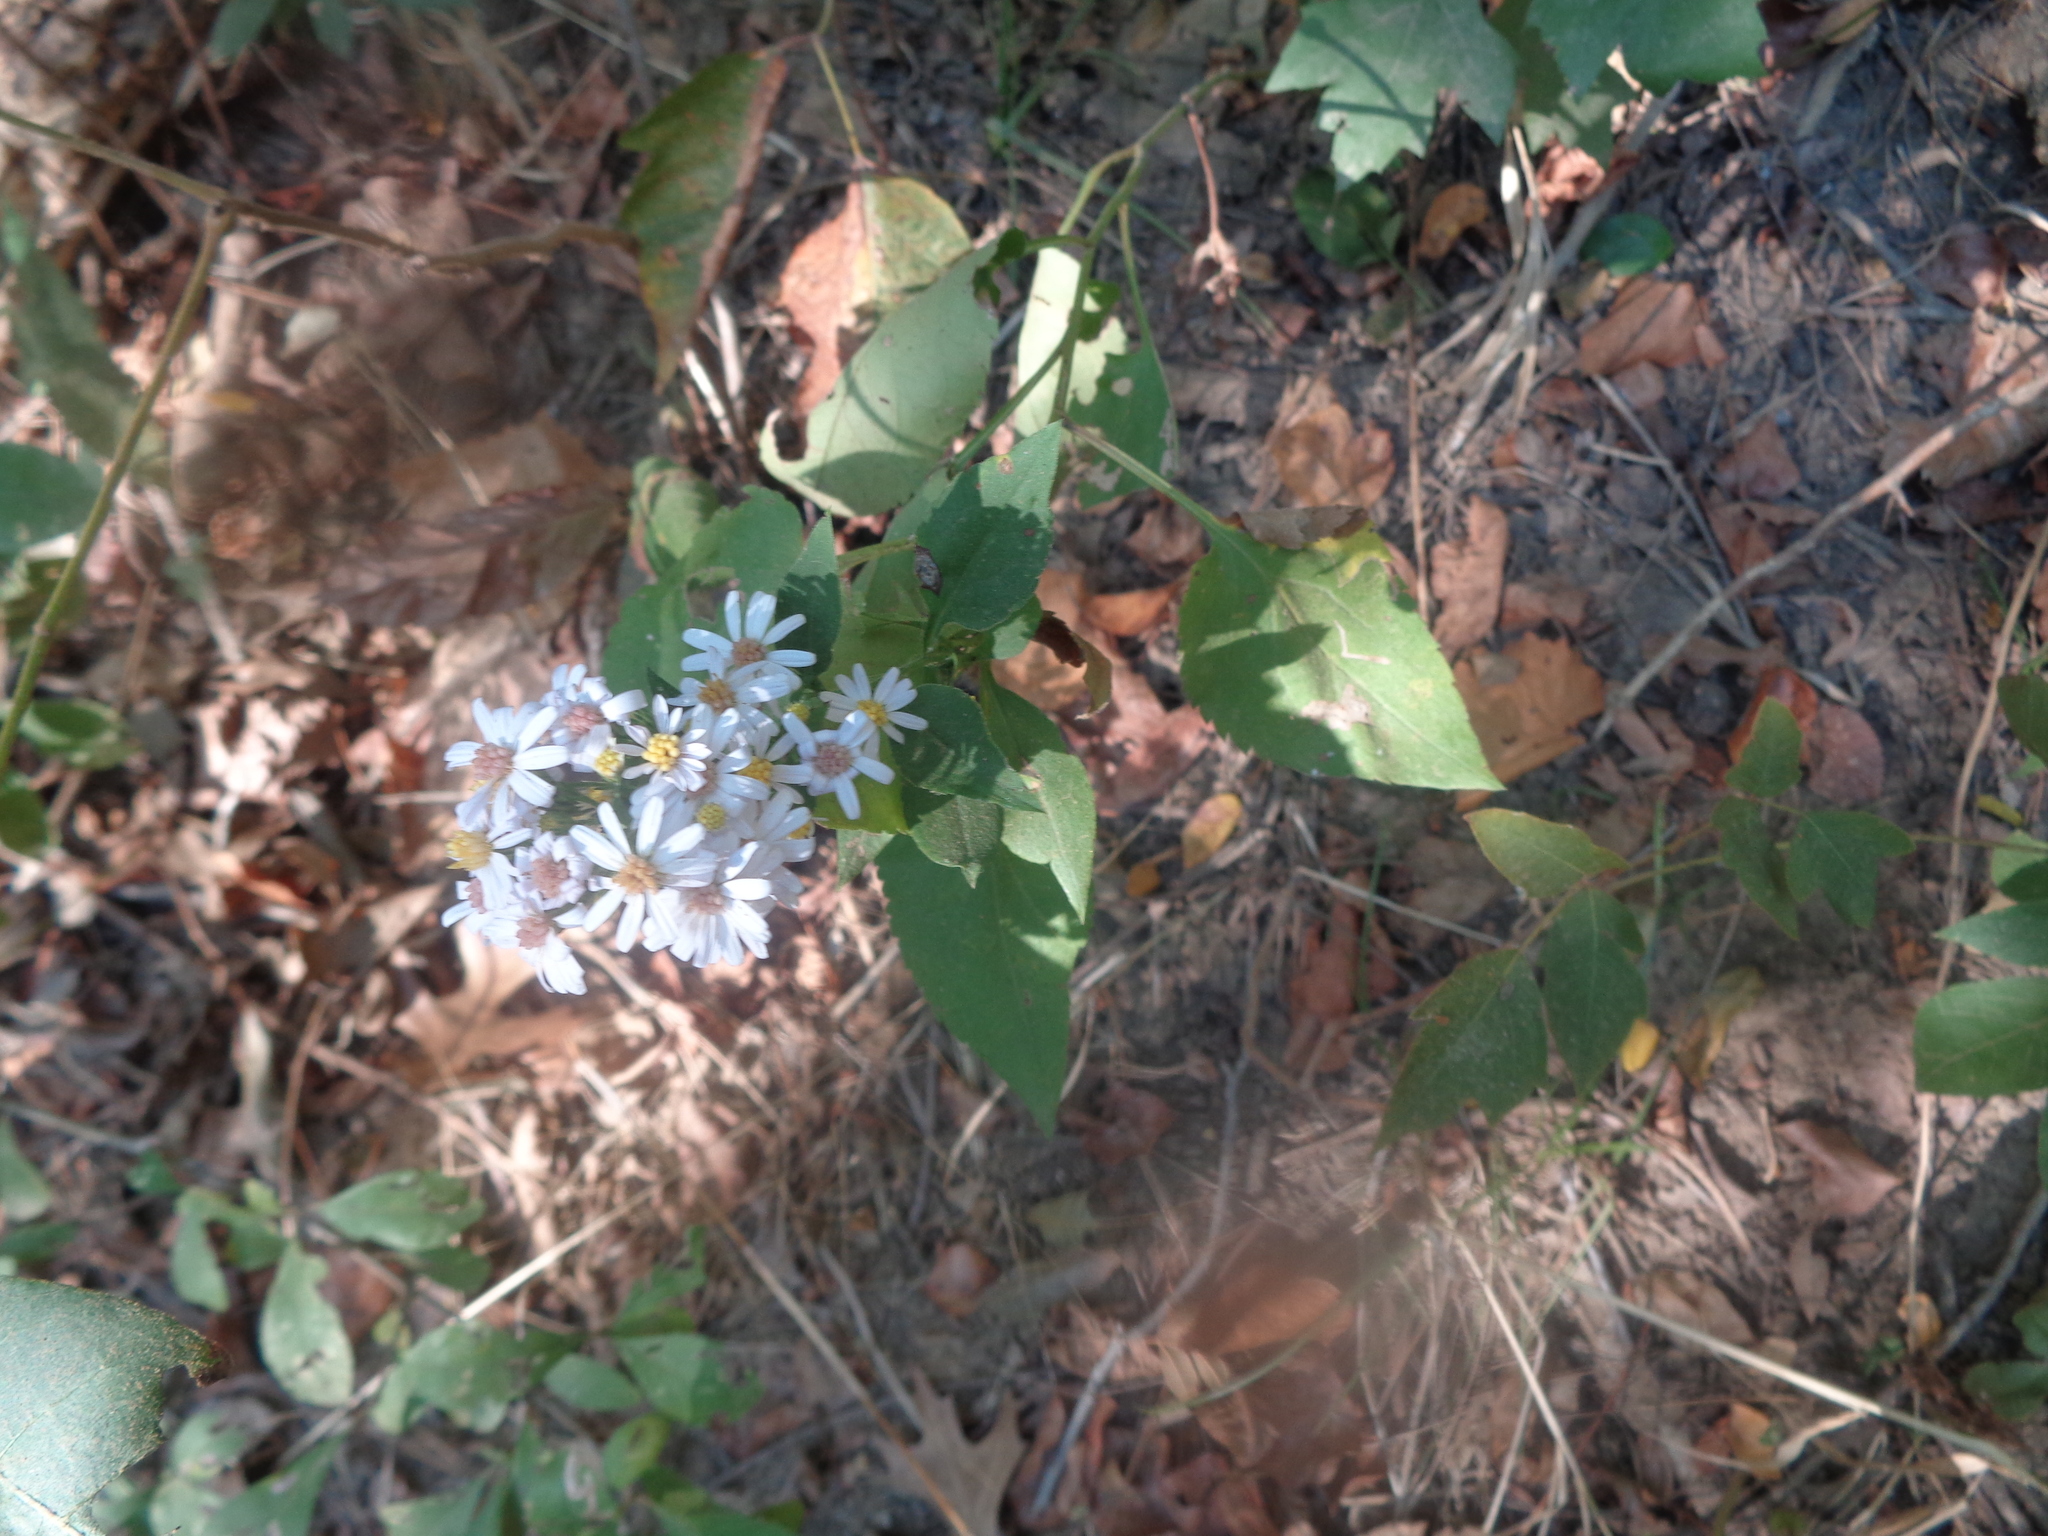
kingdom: Plantae
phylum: Tracheophyta
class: Magnoliopsida
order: Asterales
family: Asteraceae
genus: Symphyotrichum
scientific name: Symphyotrichum drummondii
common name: Drummond's aster
